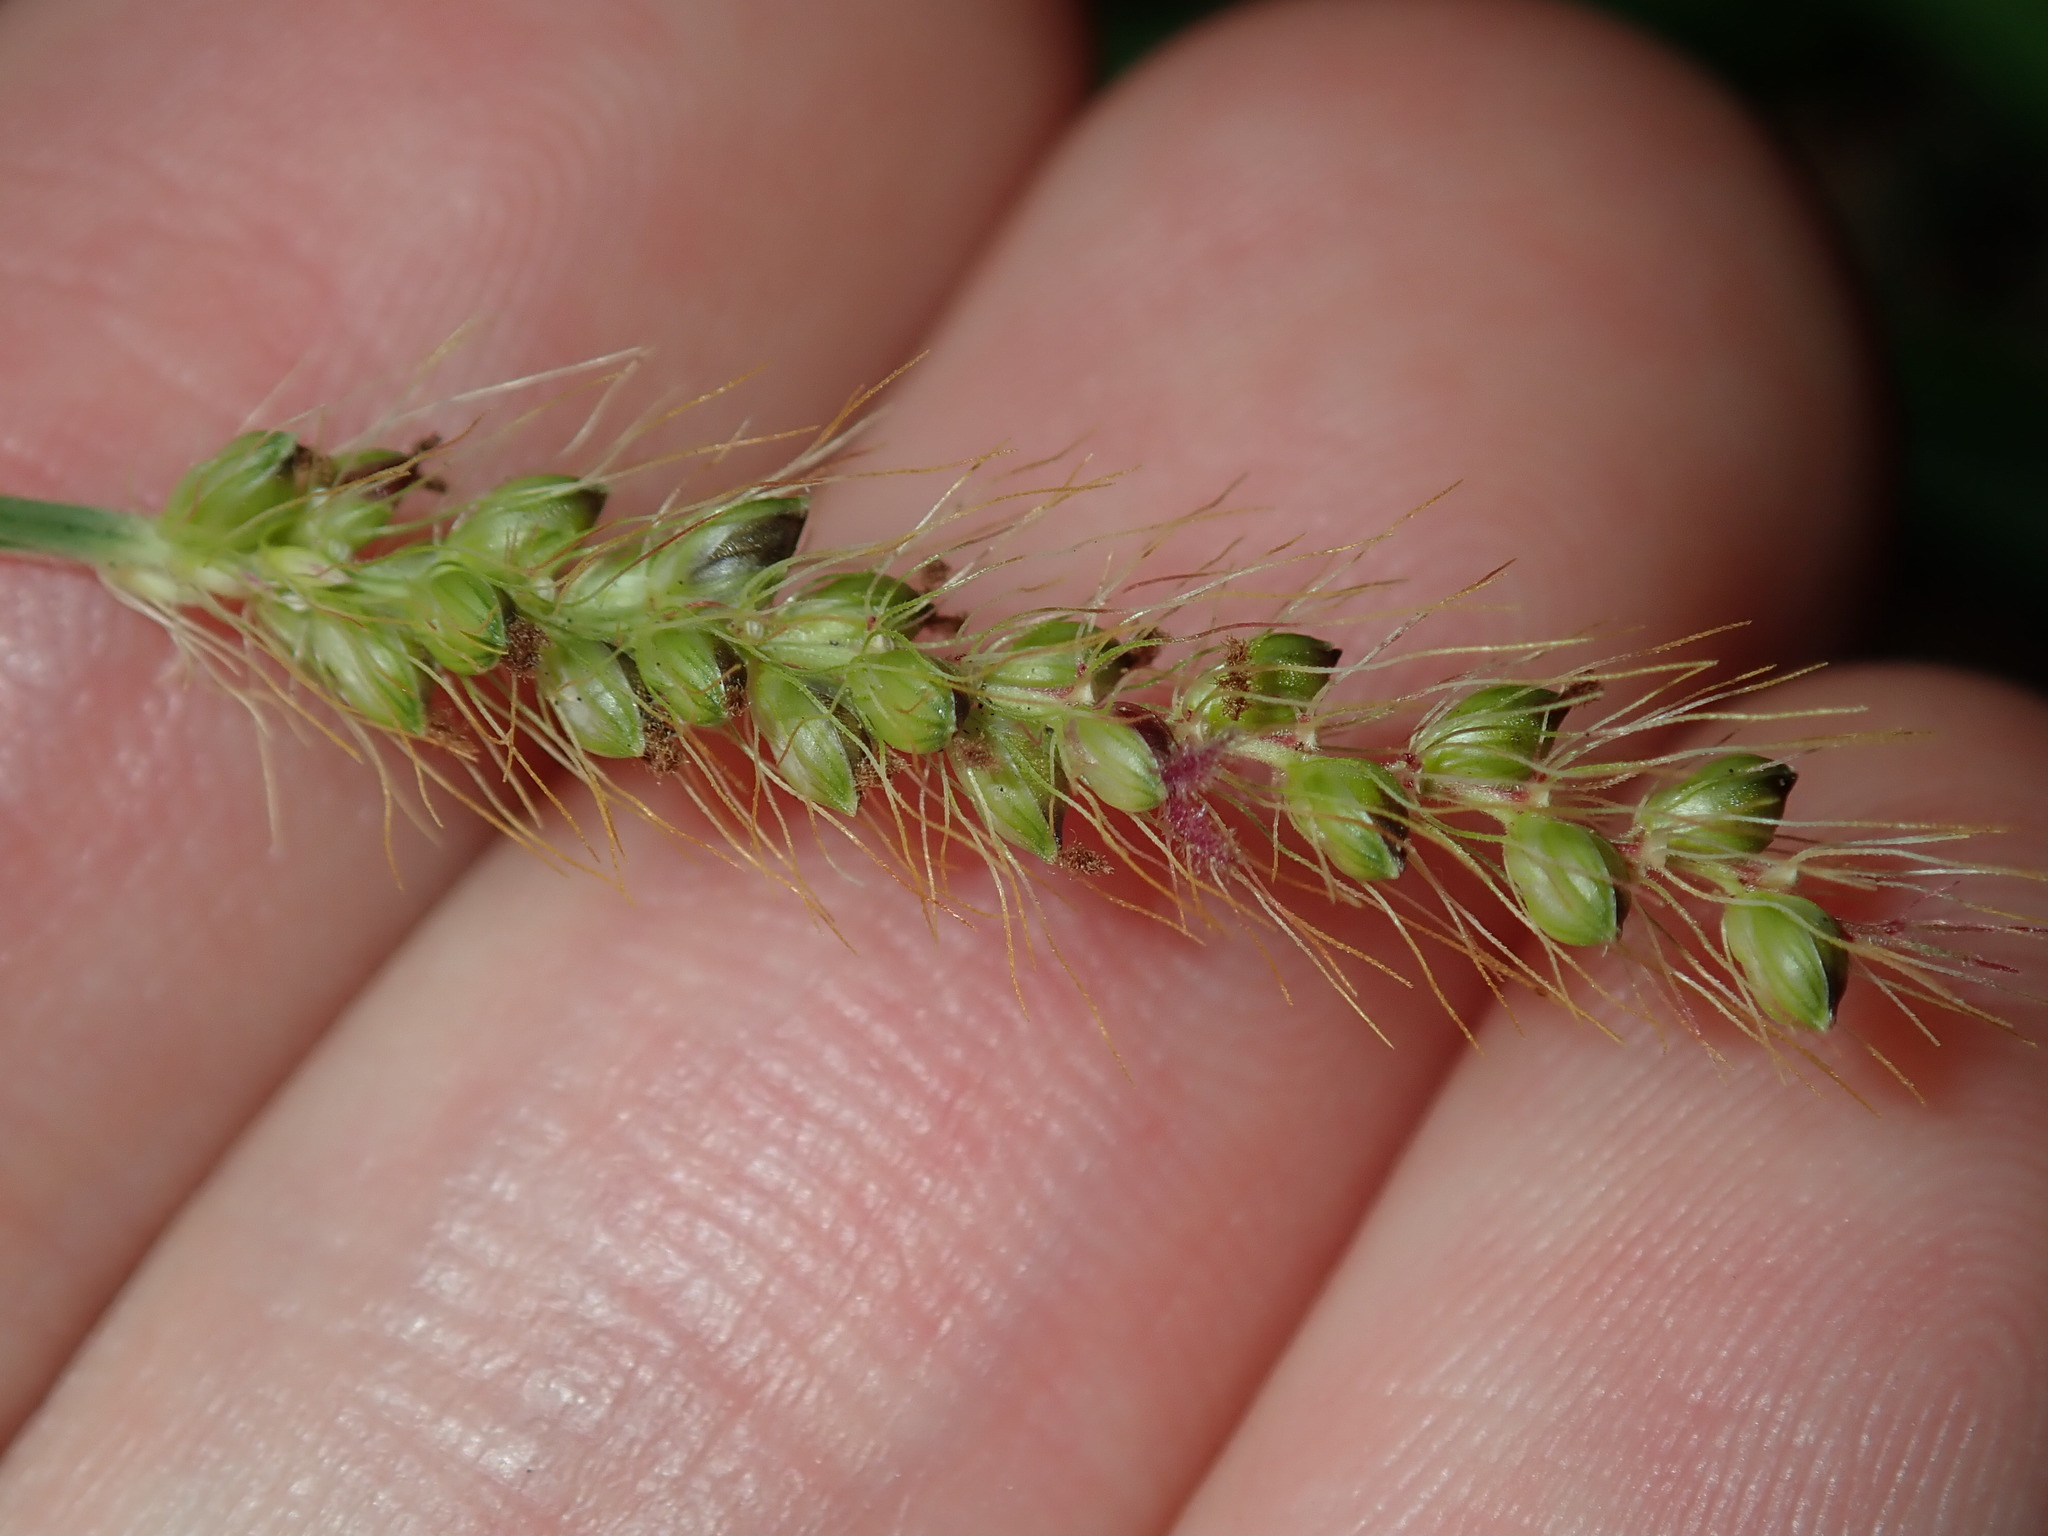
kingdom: Plantae
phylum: Tracheophyta
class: Liliopsida
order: Poales
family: Poaceae
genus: Setaria
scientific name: Setaria pumila
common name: Yellow bristle-grass
